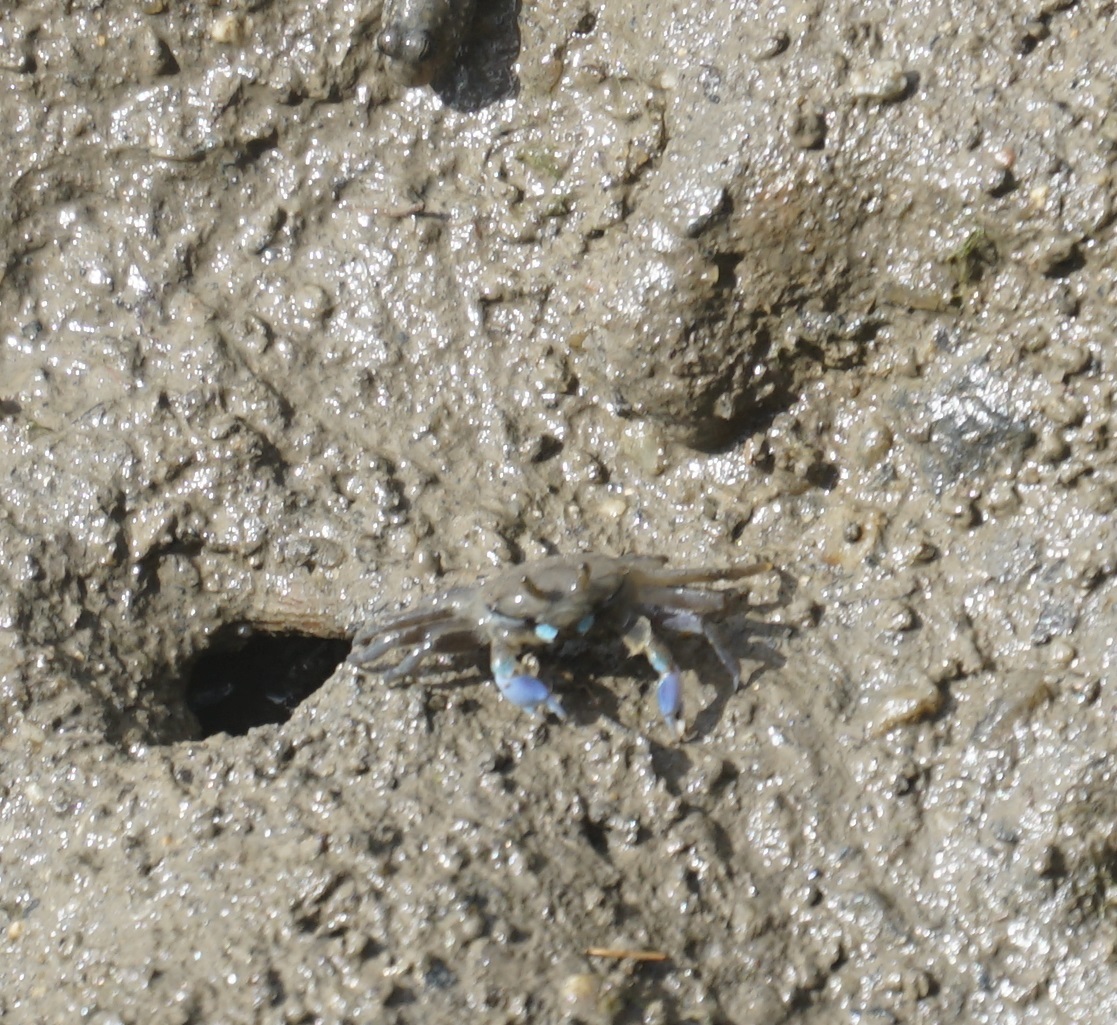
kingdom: Animalia
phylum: Arthropoda
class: Malacostraca
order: Decapoda
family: Macrophthalmidae
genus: Macrophthalmus
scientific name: Macrophthalmus pacificus
